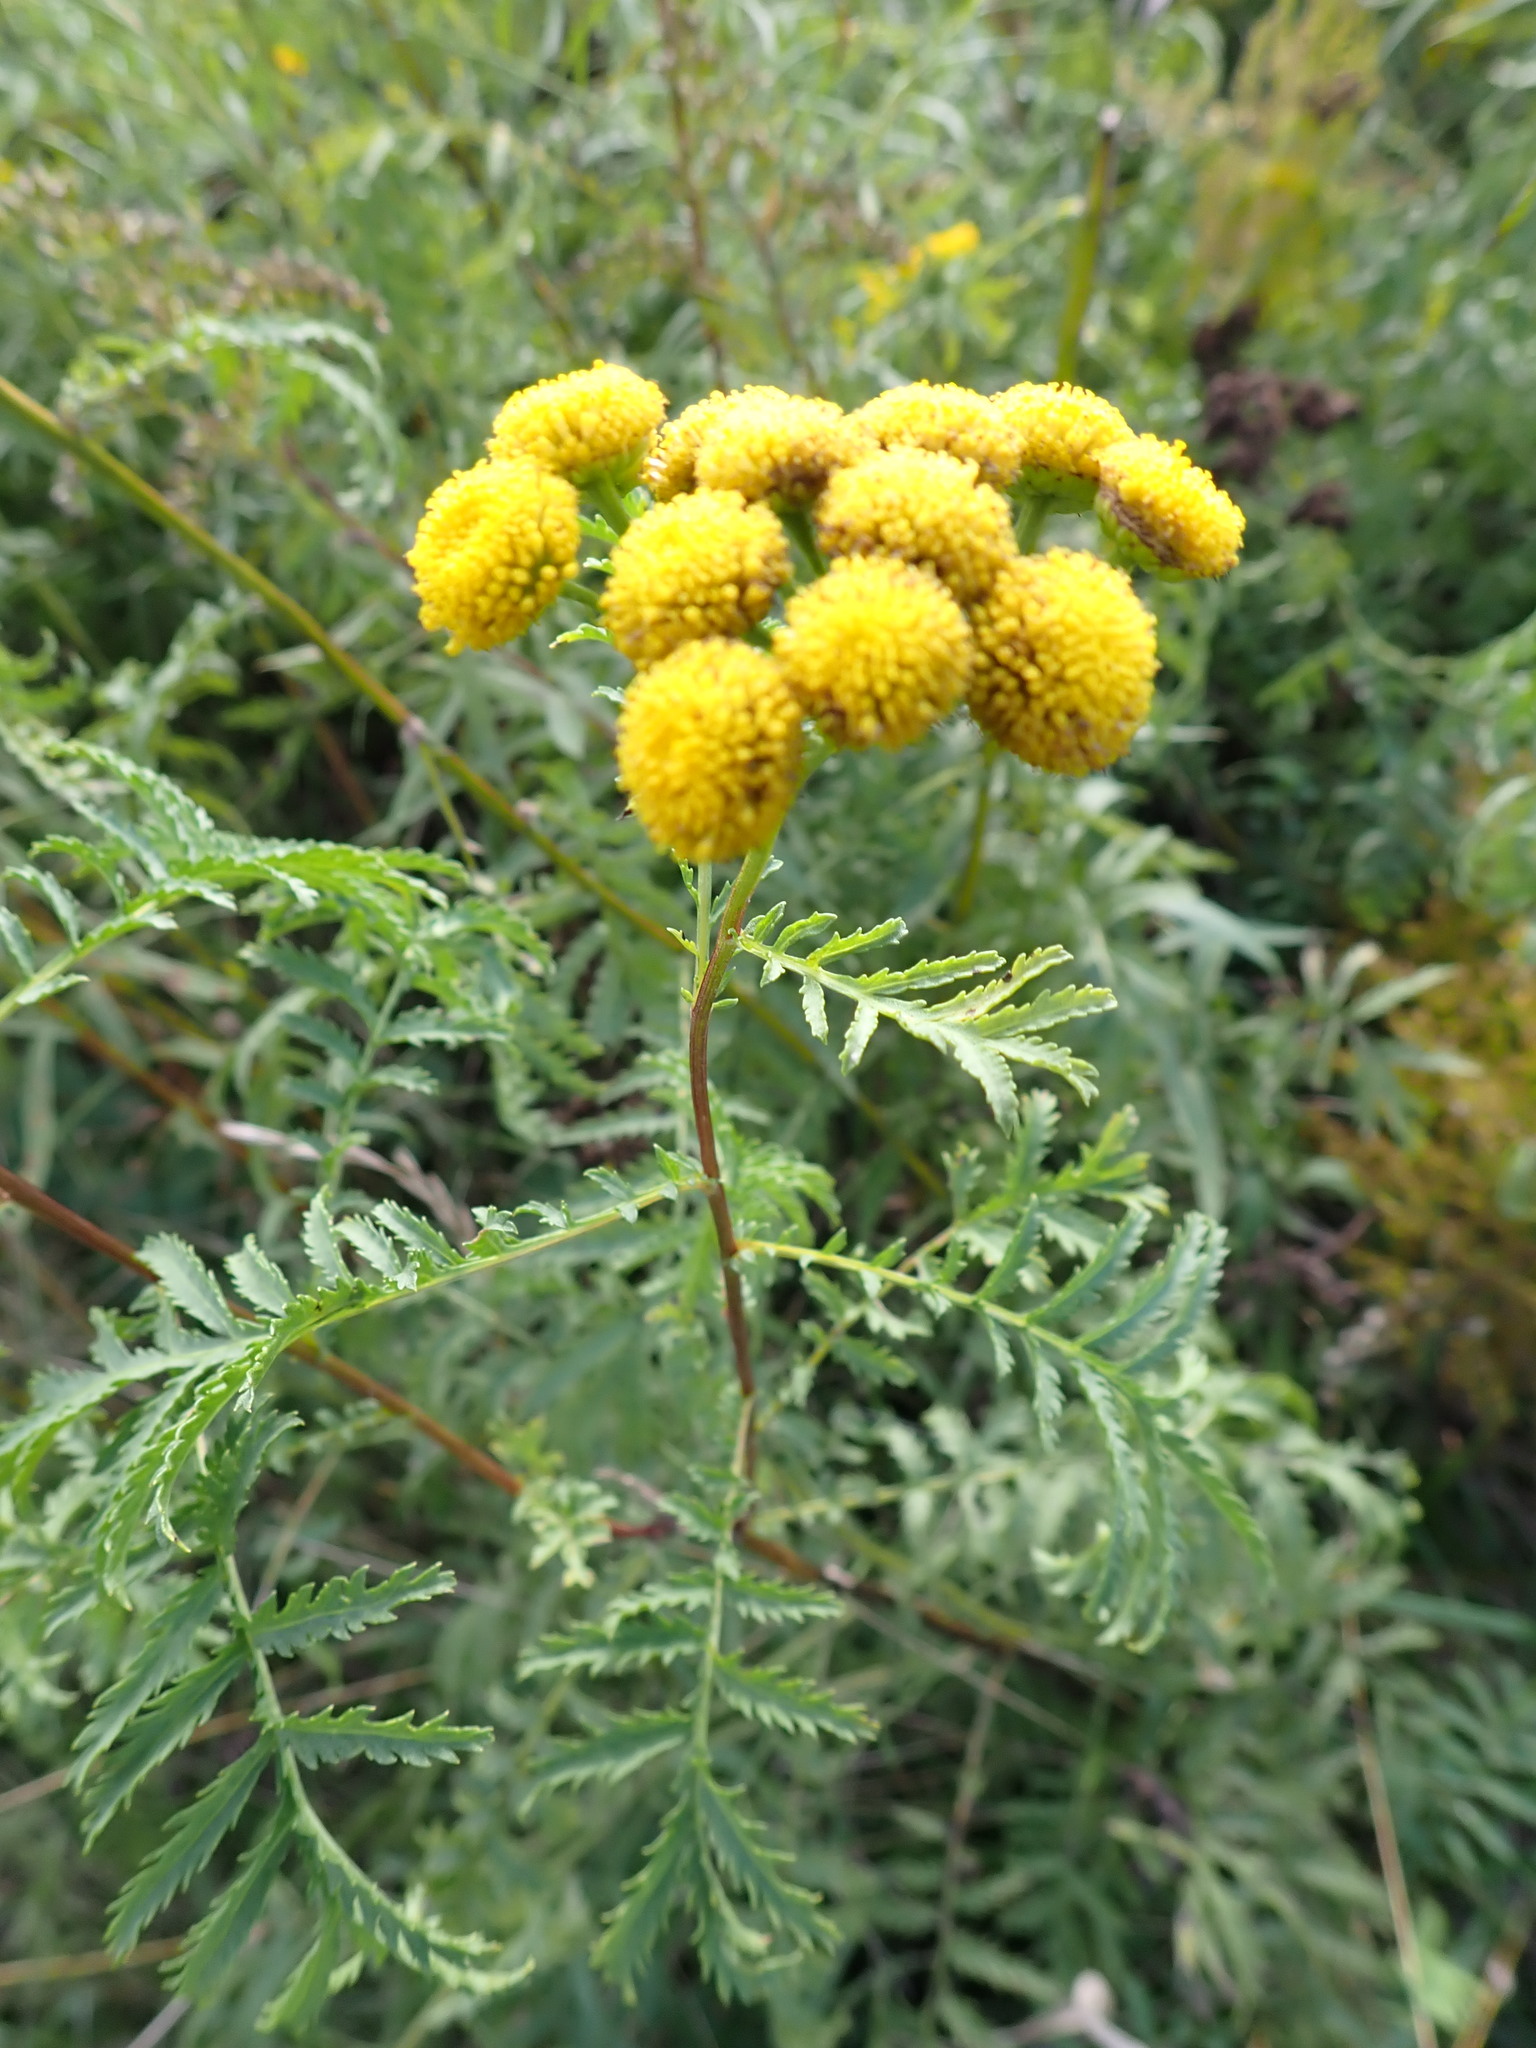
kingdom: Plantae
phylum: Tracheophyta
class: Magnoliopsida
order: Asterales
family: Asteraceae
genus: Tanacetum
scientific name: Tanacetum vulgare
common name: Common tansy
